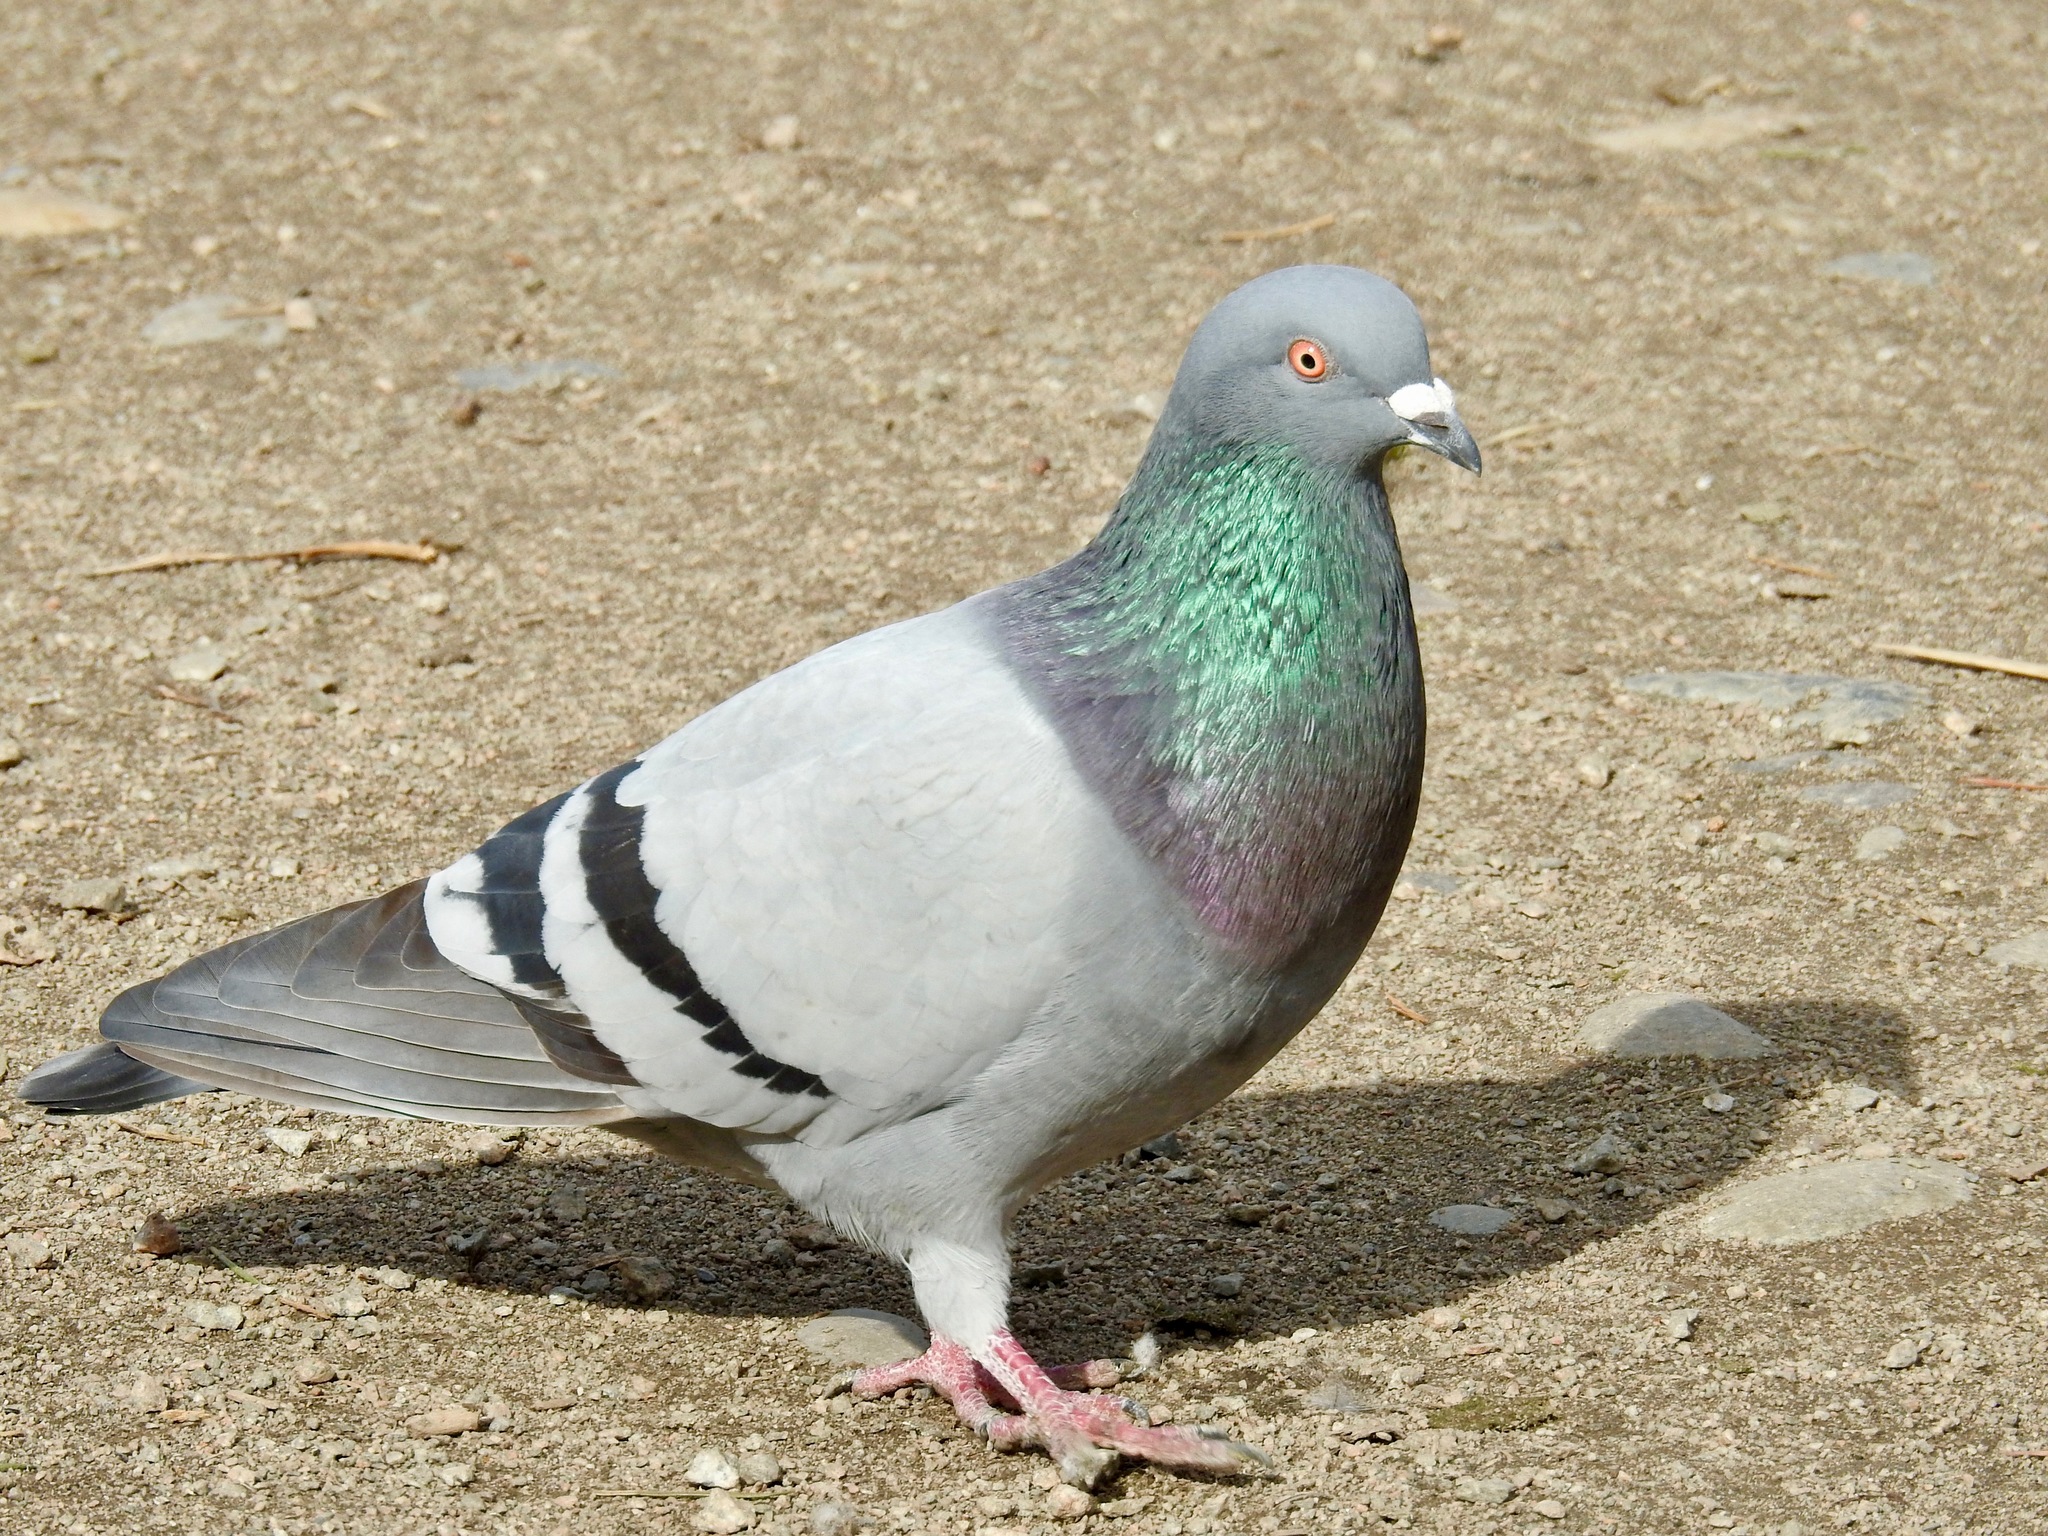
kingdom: Animalia
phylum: Chordata
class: Aves
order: Columbiformes
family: Columbidae
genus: Columba
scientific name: Columba livia
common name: Rock pigeon
